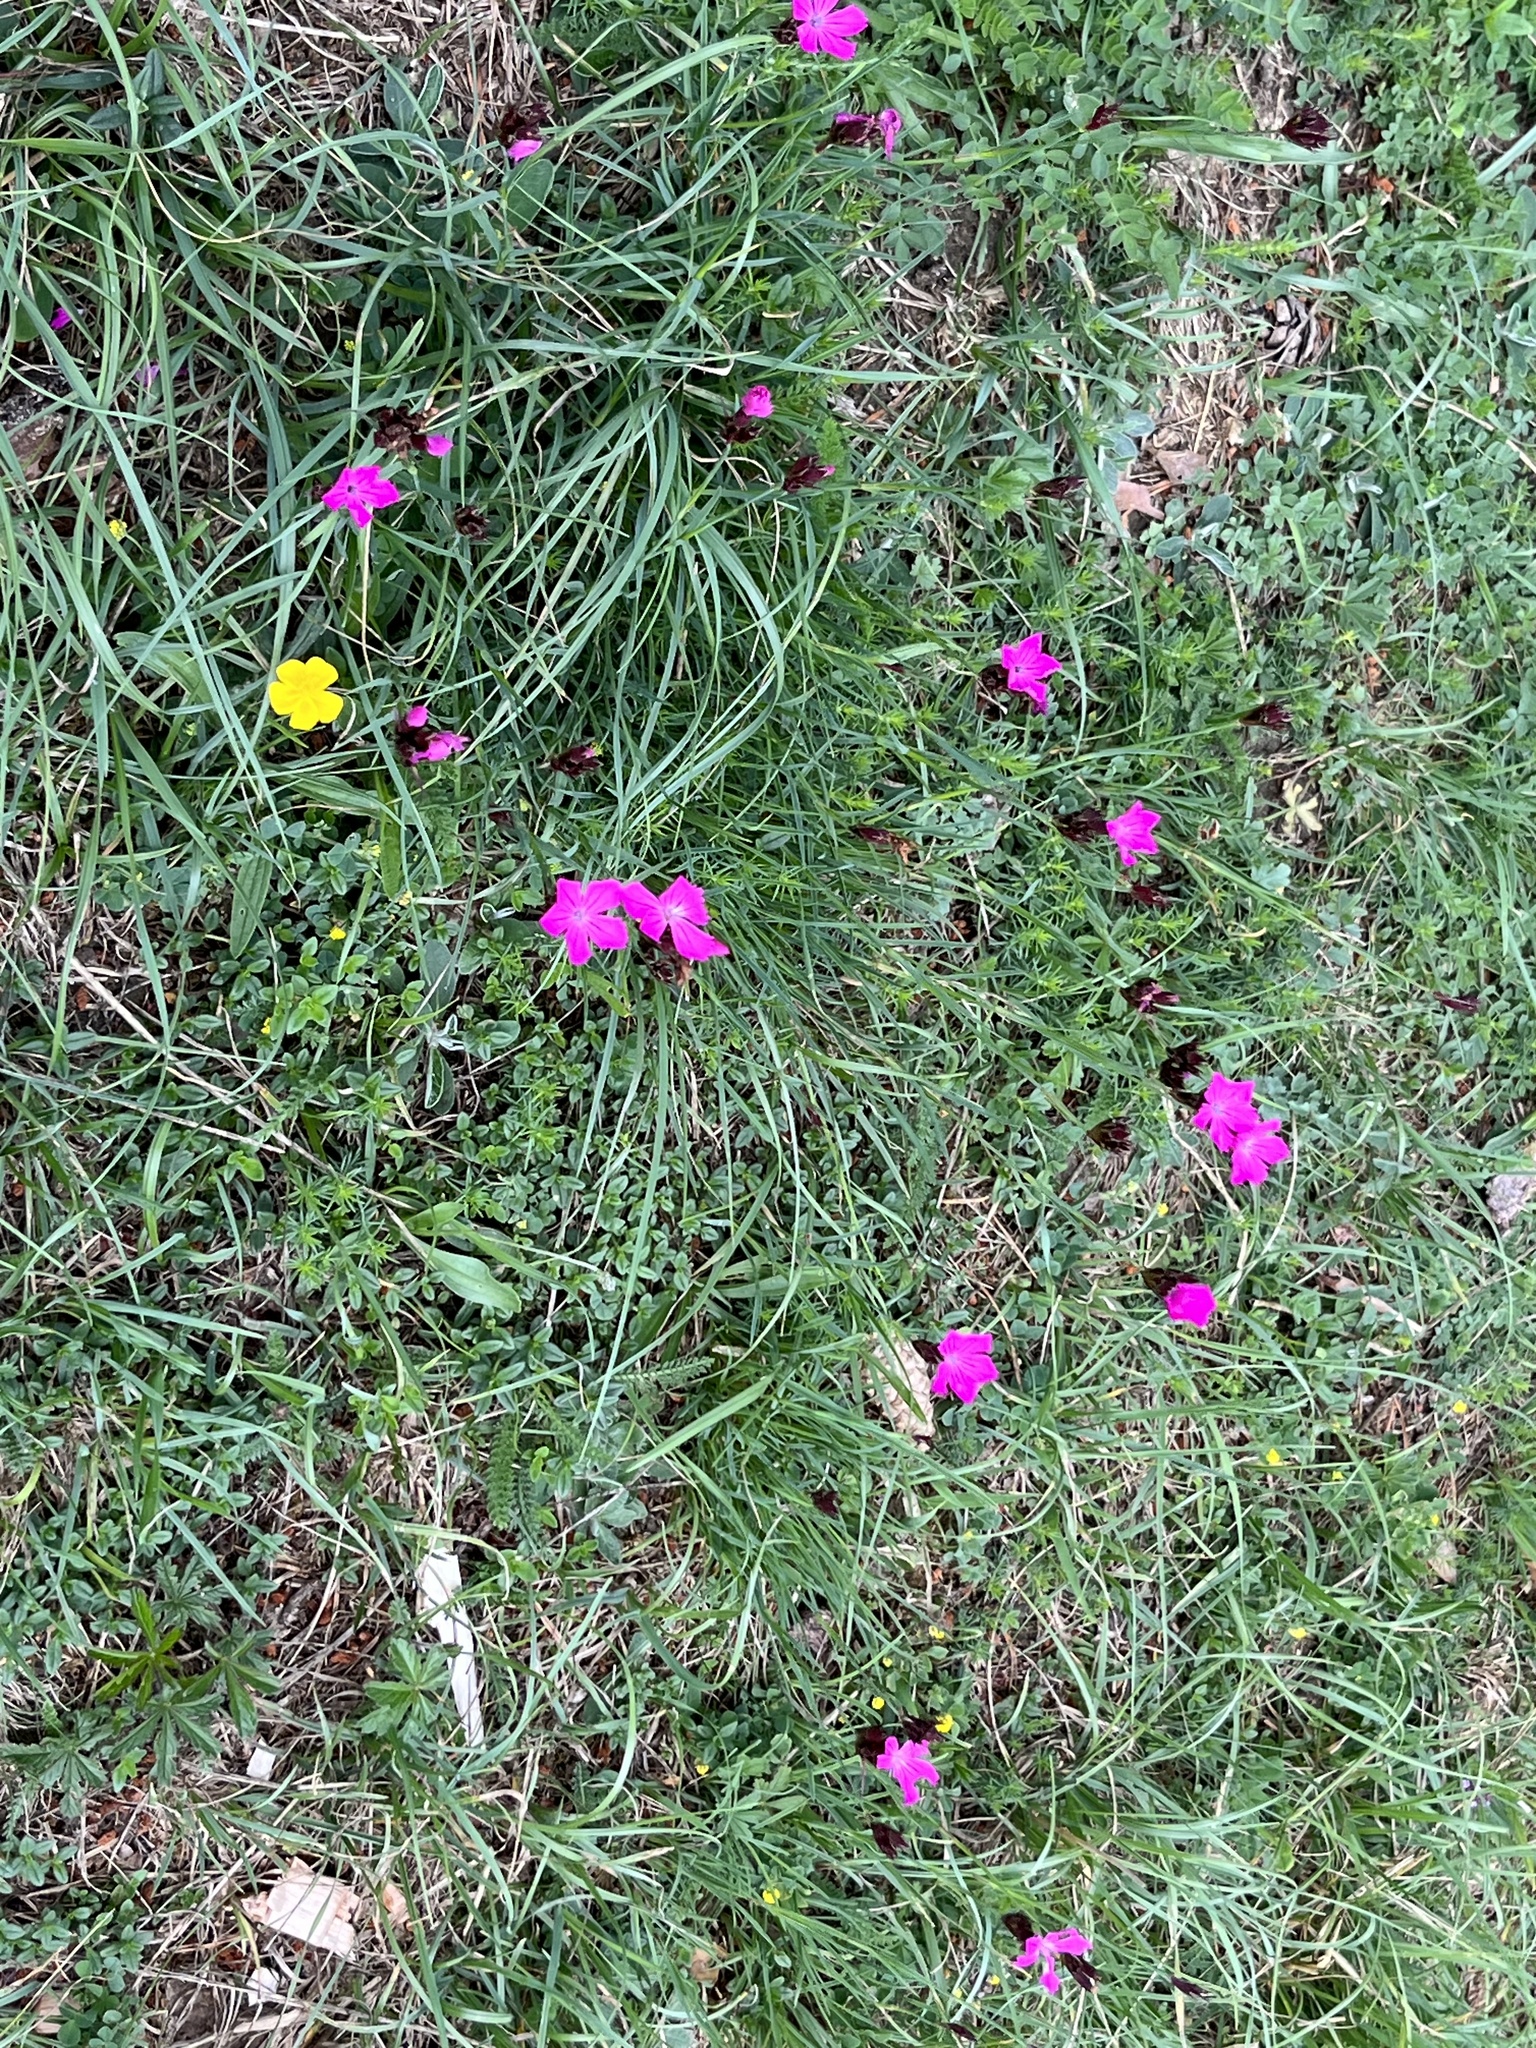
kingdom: Plantae
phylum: Tracheophyta
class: Magnoliopsida
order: Caryophyllales
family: Caryophyllaceae
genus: Dianthus
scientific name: Dianthus carthusianorum
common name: Carthusian pink
